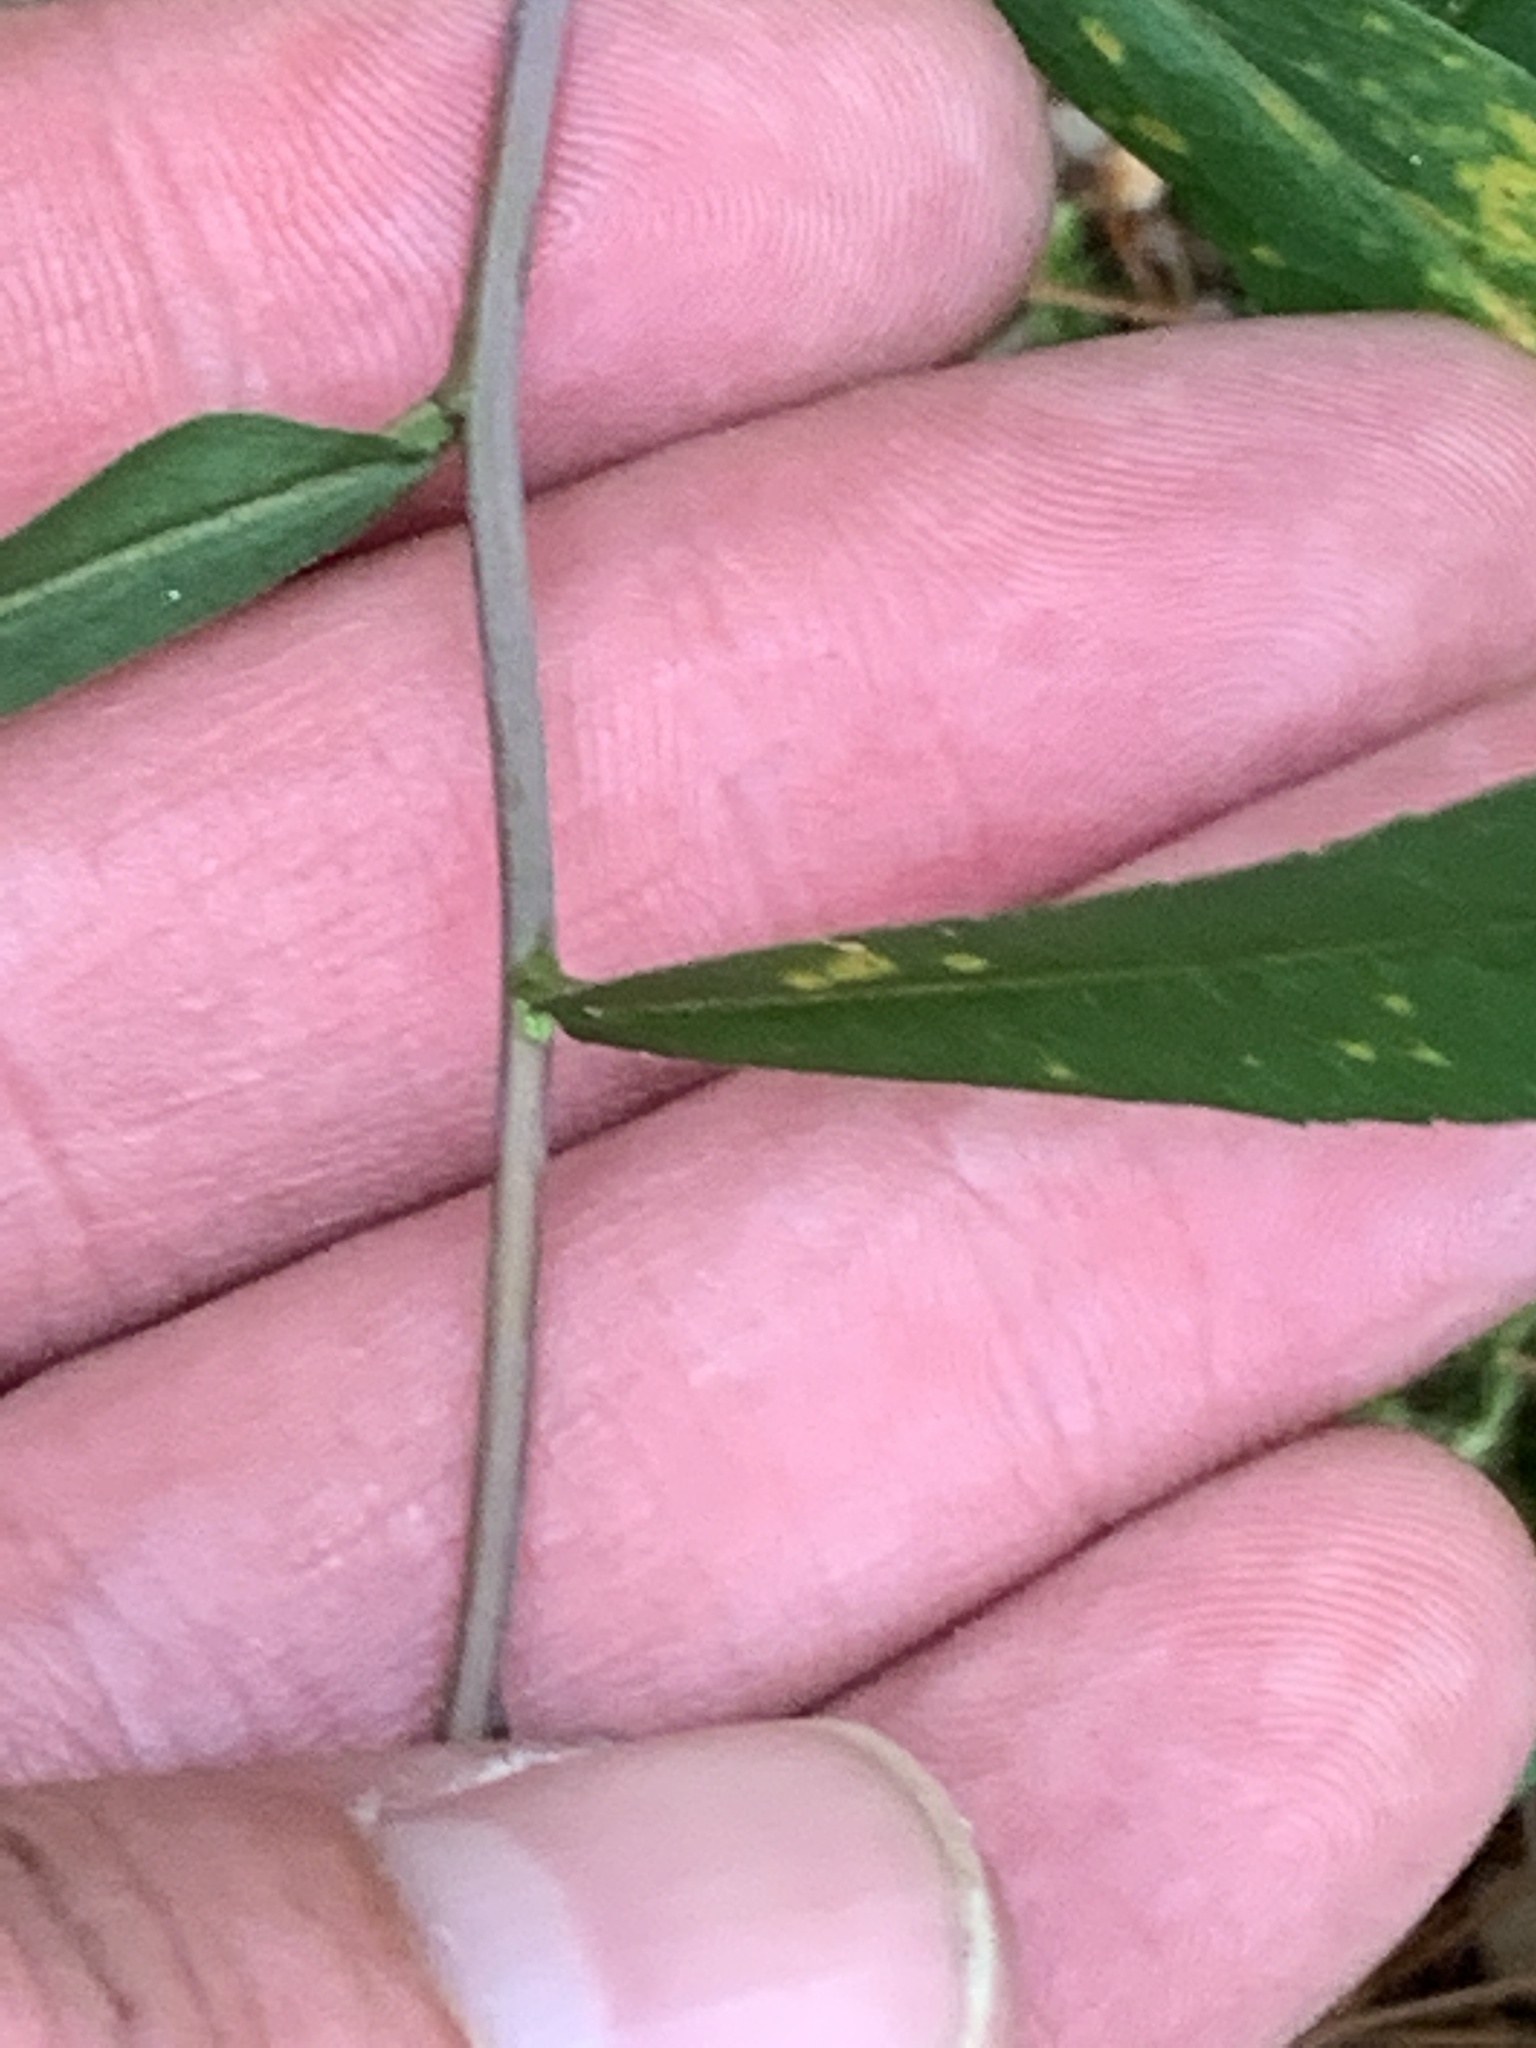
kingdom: Plantae
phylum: Tracheophyta
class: Magnoliopsida
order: Asterales
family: Asteraceae
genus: Solidago
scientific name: Solidago caesia
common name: Woodland goldenrod
